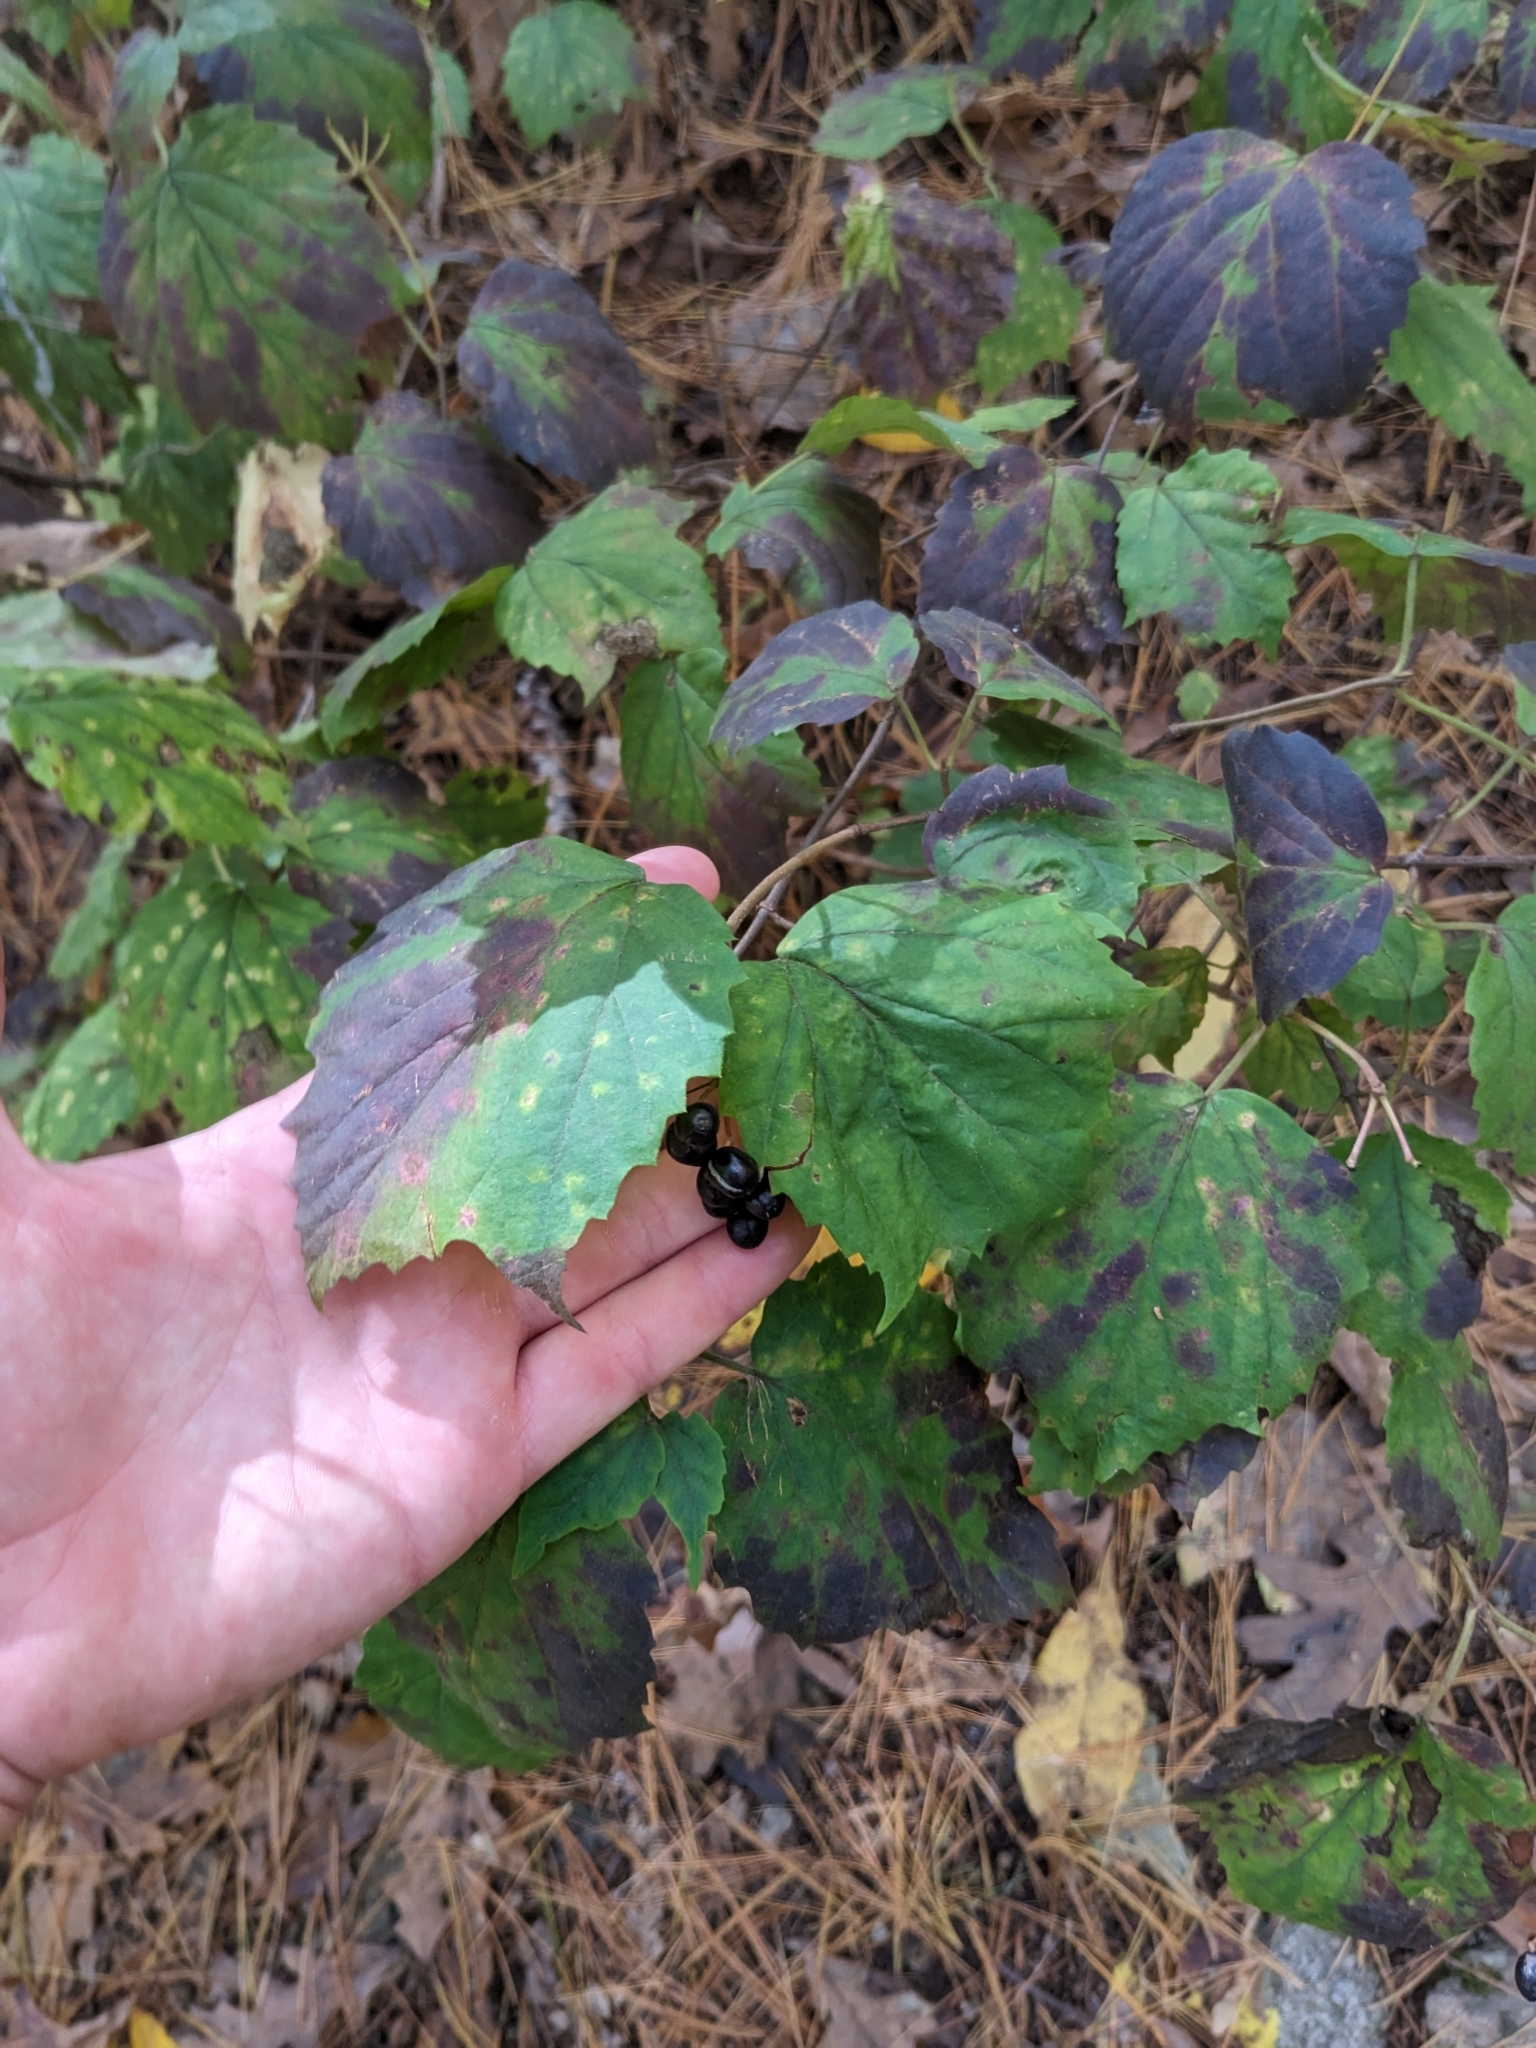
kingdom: Plantae
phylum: Tracheophyta
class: Magnoliopsida
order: Dipsacales
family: Viburnaceae
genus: Viburnum
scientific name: Viburnum acerifolium
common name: Dockmackie
